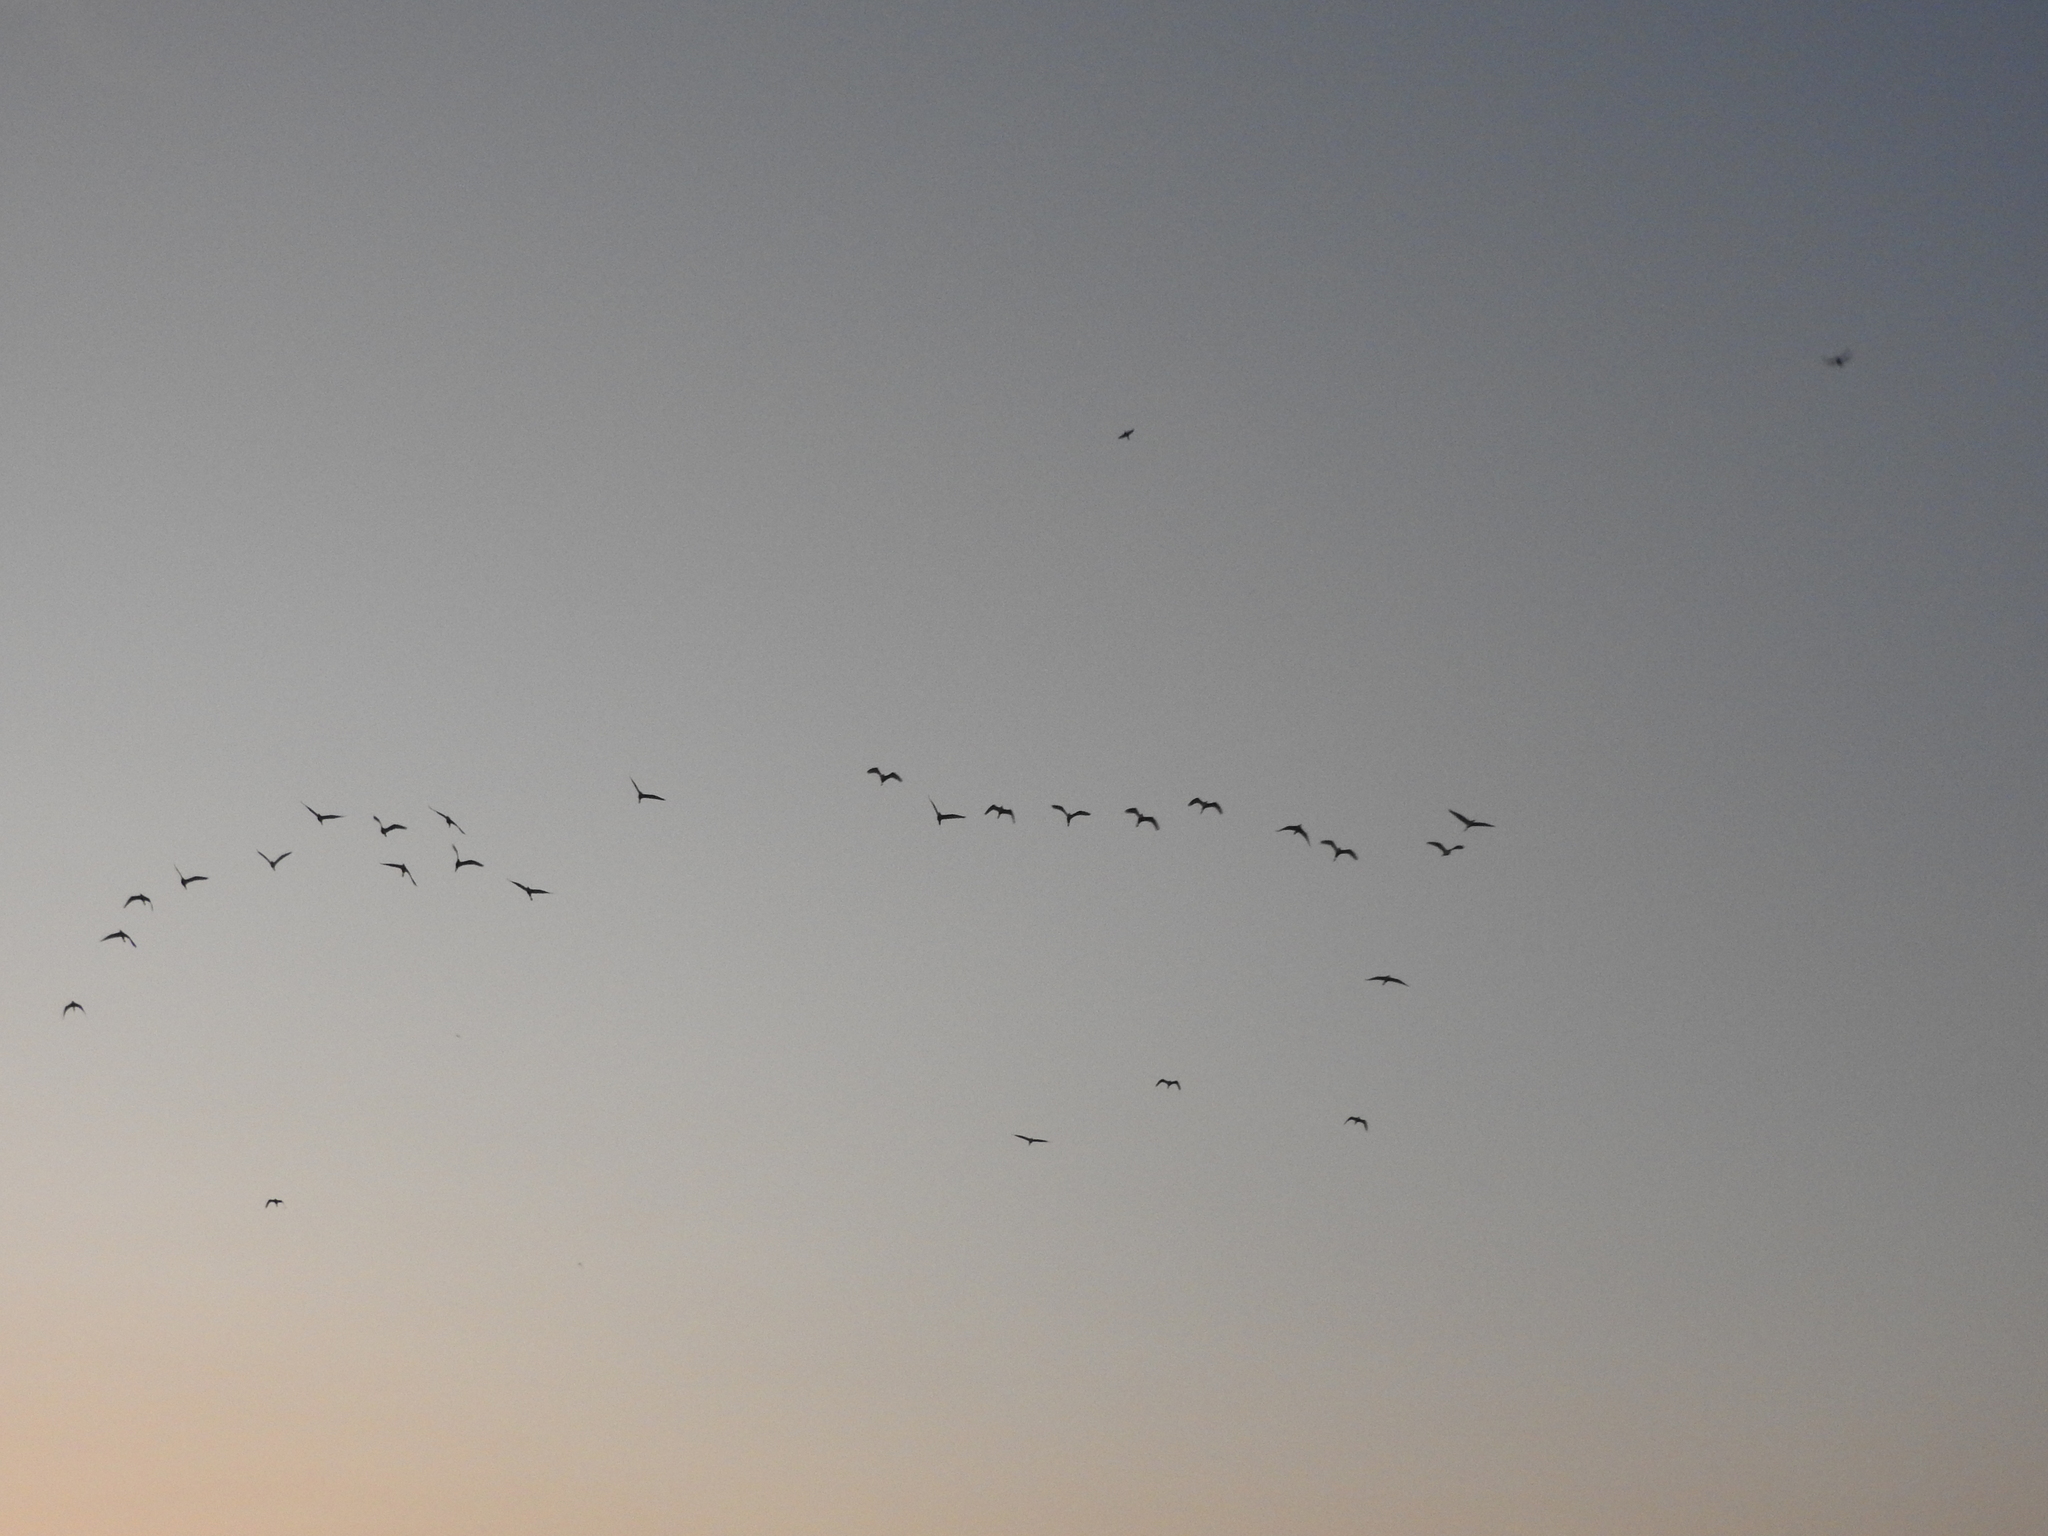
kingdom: Animalia
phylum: Chordata
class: Aves
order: Pelecaniformes
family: Ardeidae
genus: Bubulcus
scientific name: Bubulcus ibis
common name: Cattle egret
